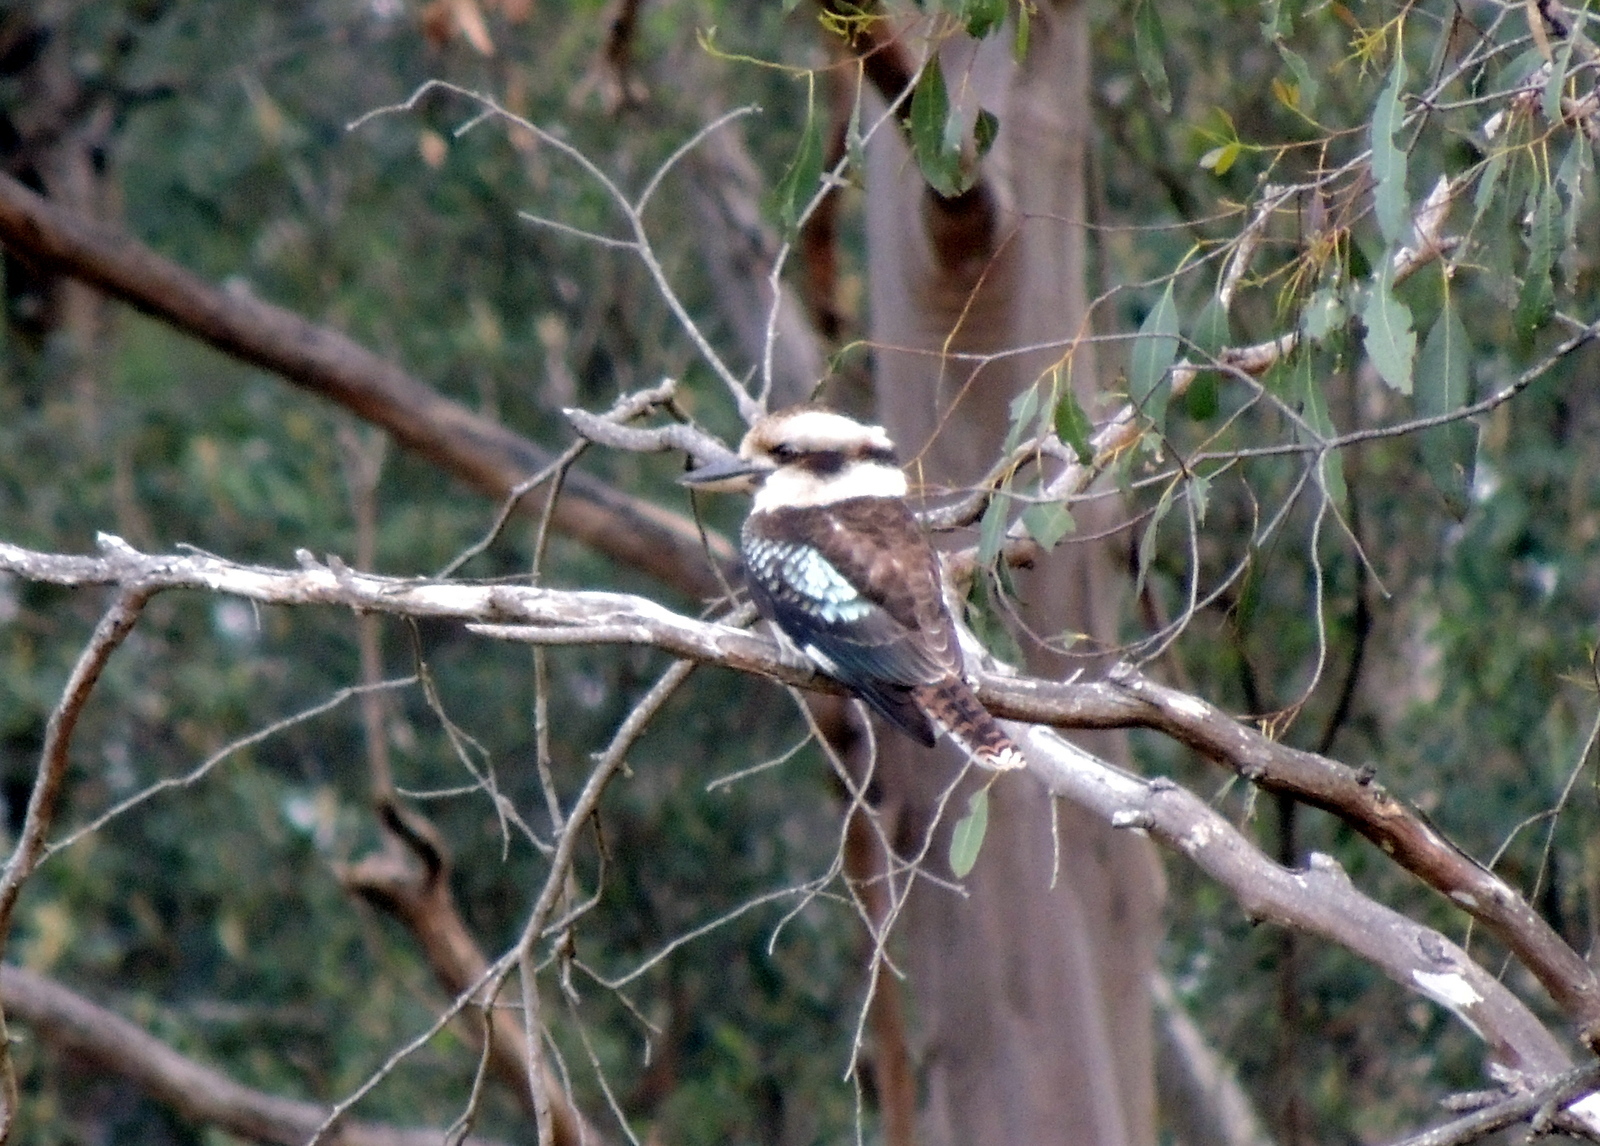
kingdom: Animalia
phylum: Chordata
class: Aves
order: Coraciiformes
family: Alcedinidae
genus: Dacelo
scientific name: Dacelo novaeguineae
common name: Laughing kookaburra
